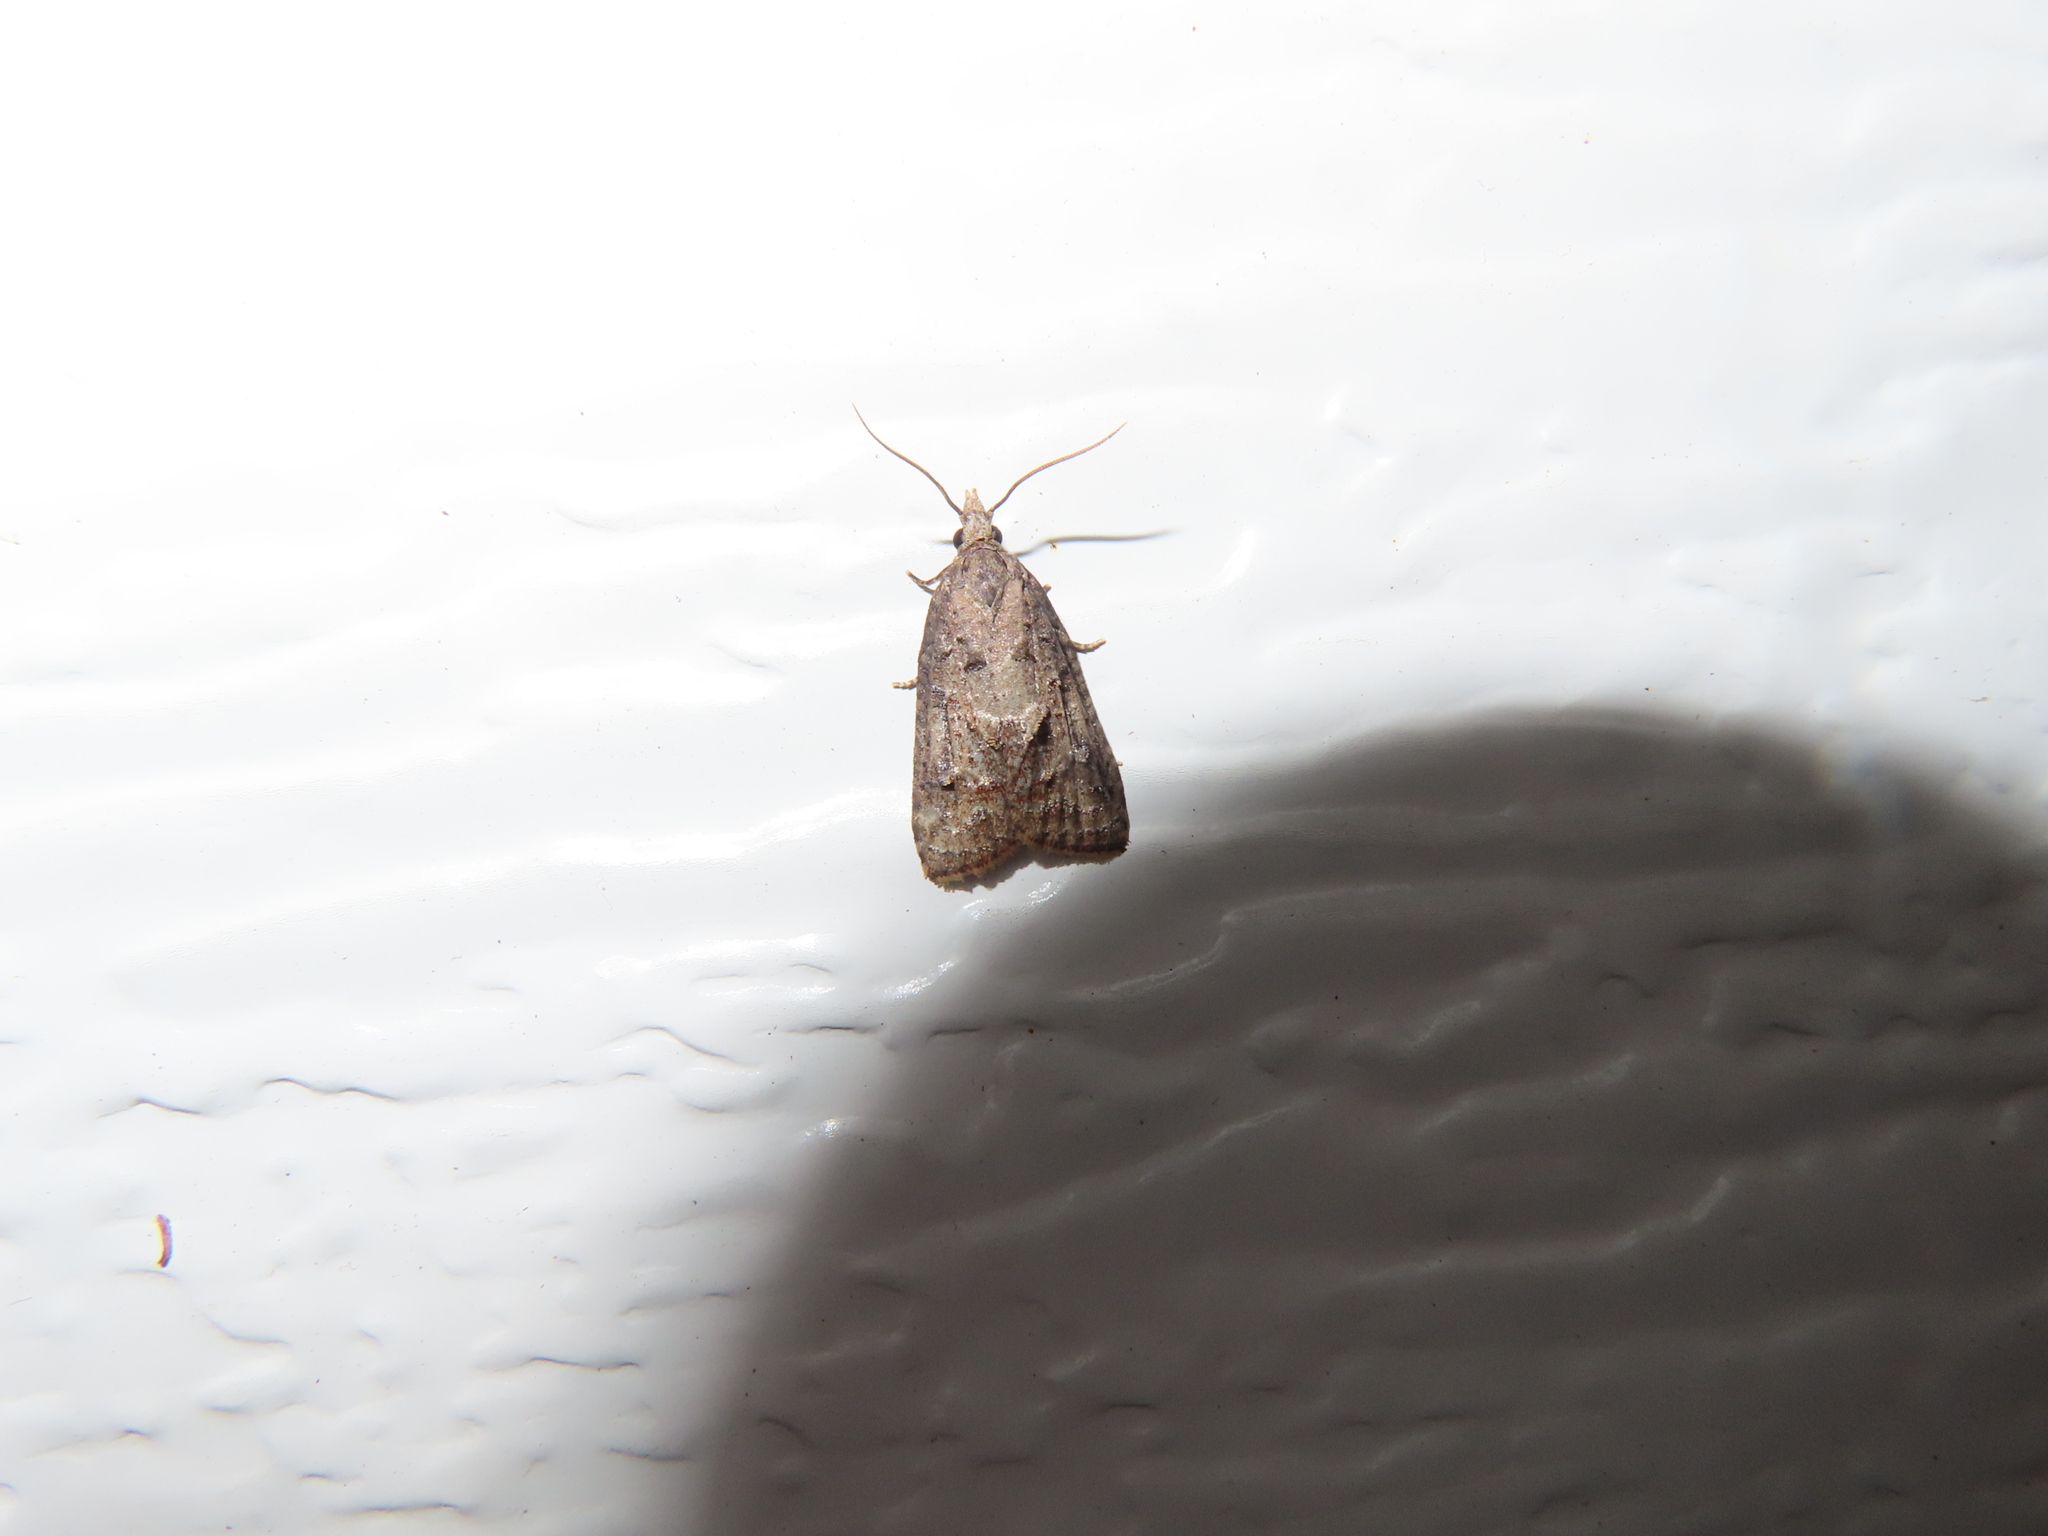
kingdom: Animalia
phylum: Arthropoda
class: Insecta
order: Lepidoptera
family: Tortricidae
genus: Platynota
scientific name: Platynota idaeusalis
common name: Tufted apple bud moth
